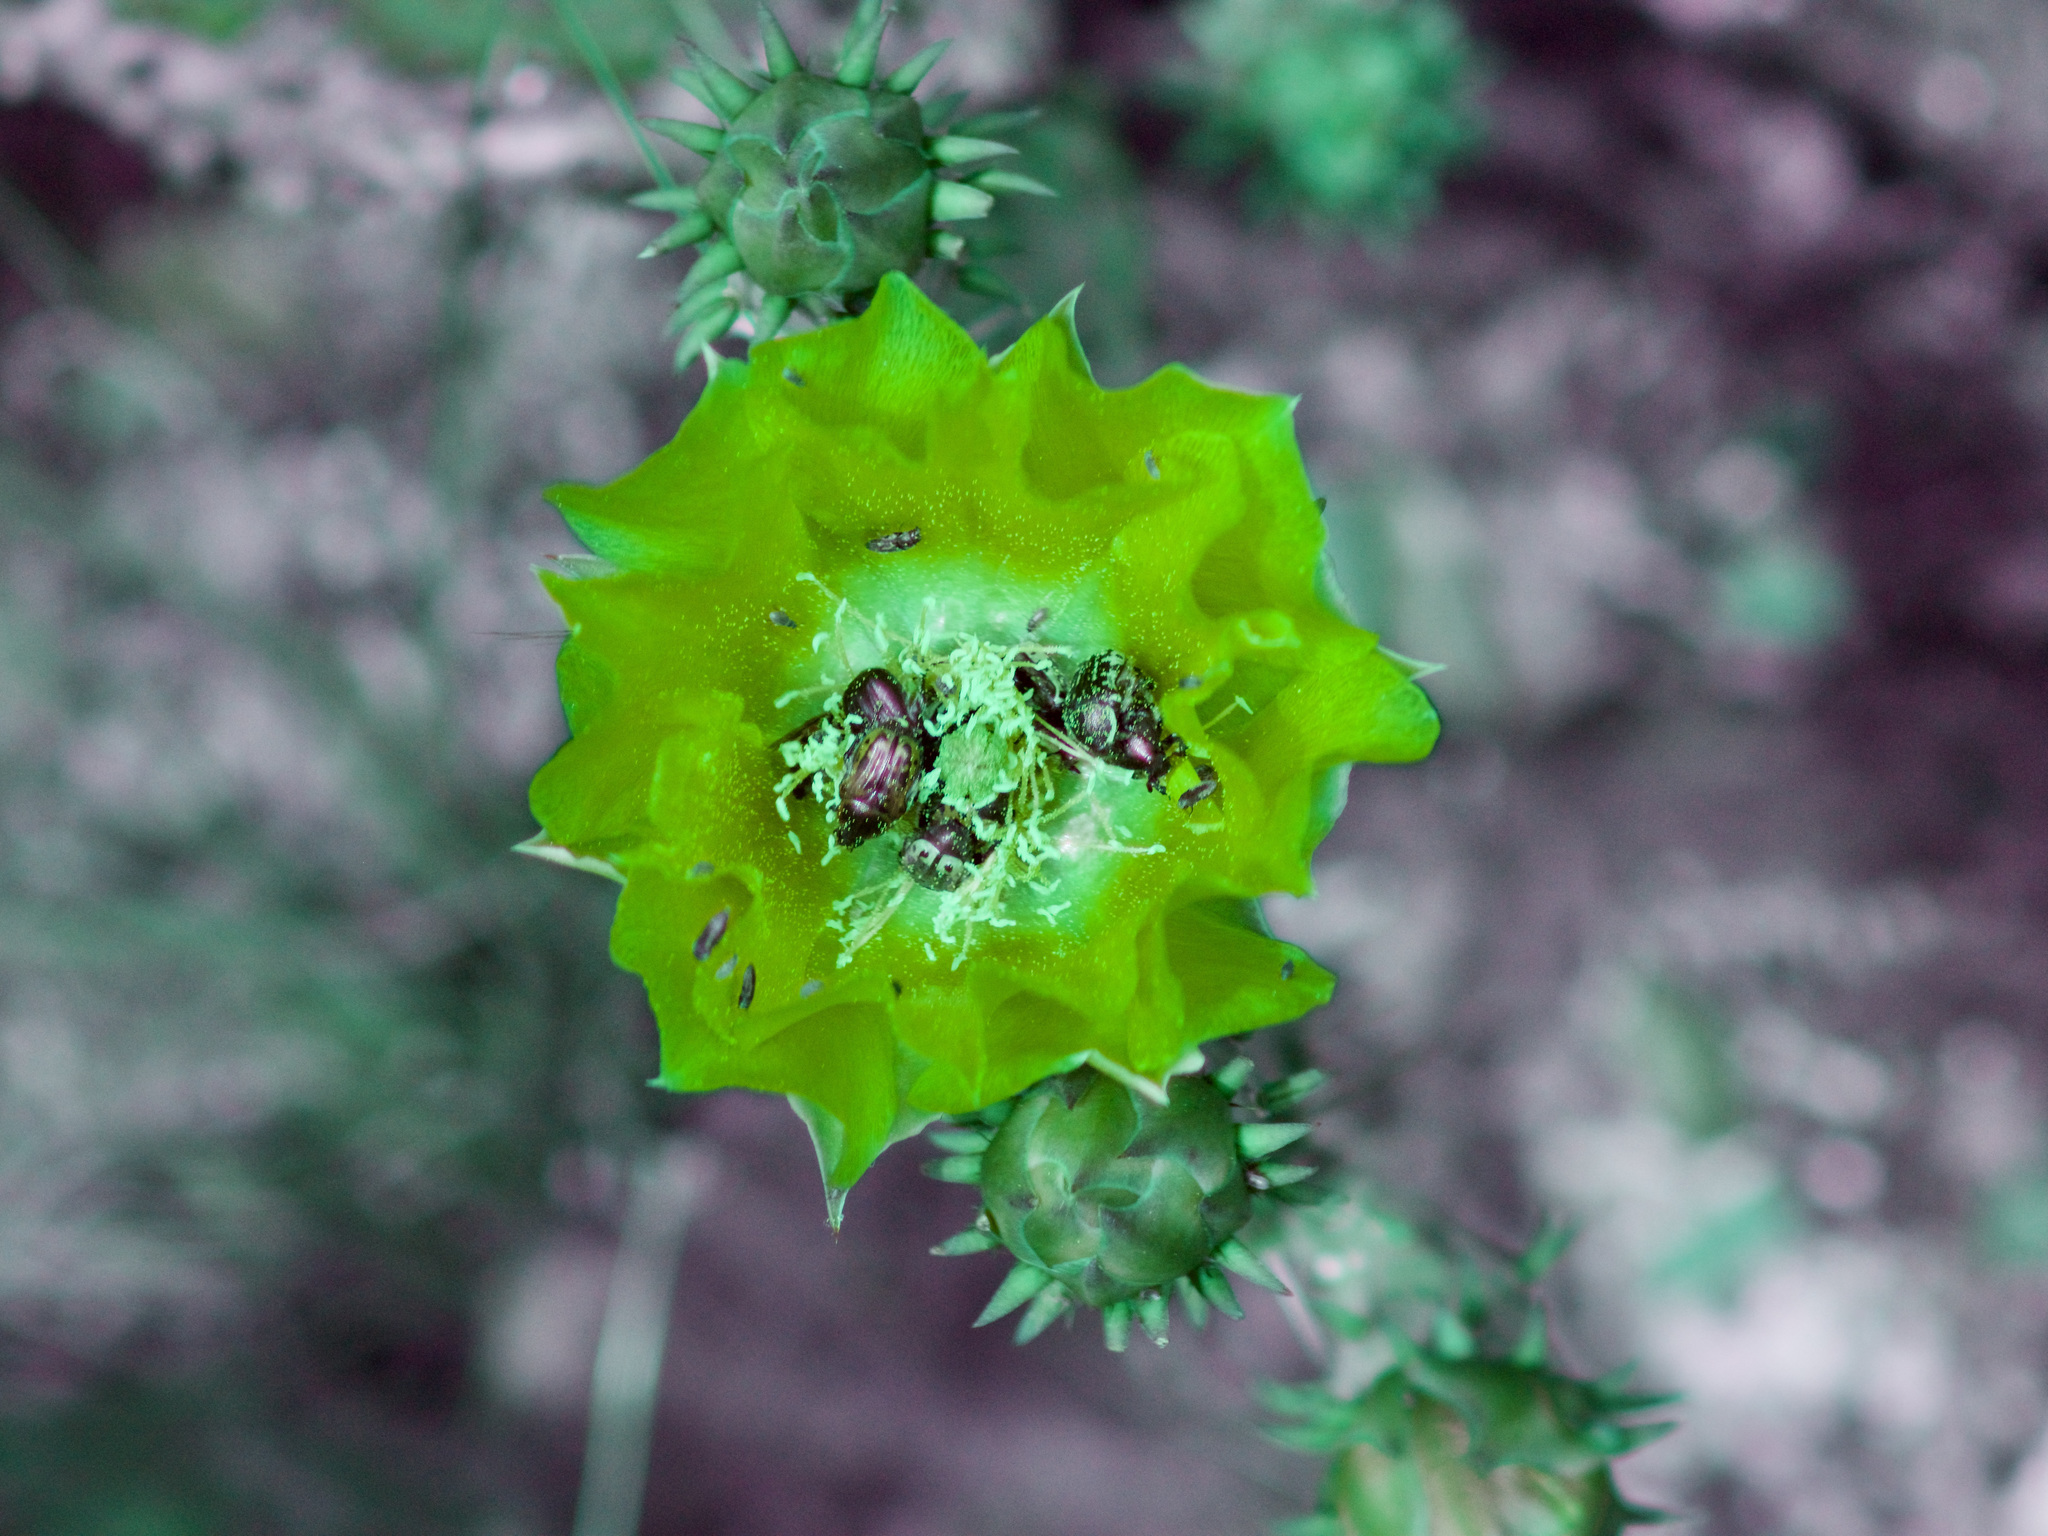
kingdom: Animalia
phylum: Arthropoda
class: Insecta
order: Coleoptera
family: Scarabaeidae
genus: Euphoria
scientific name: Euphoria kernii
